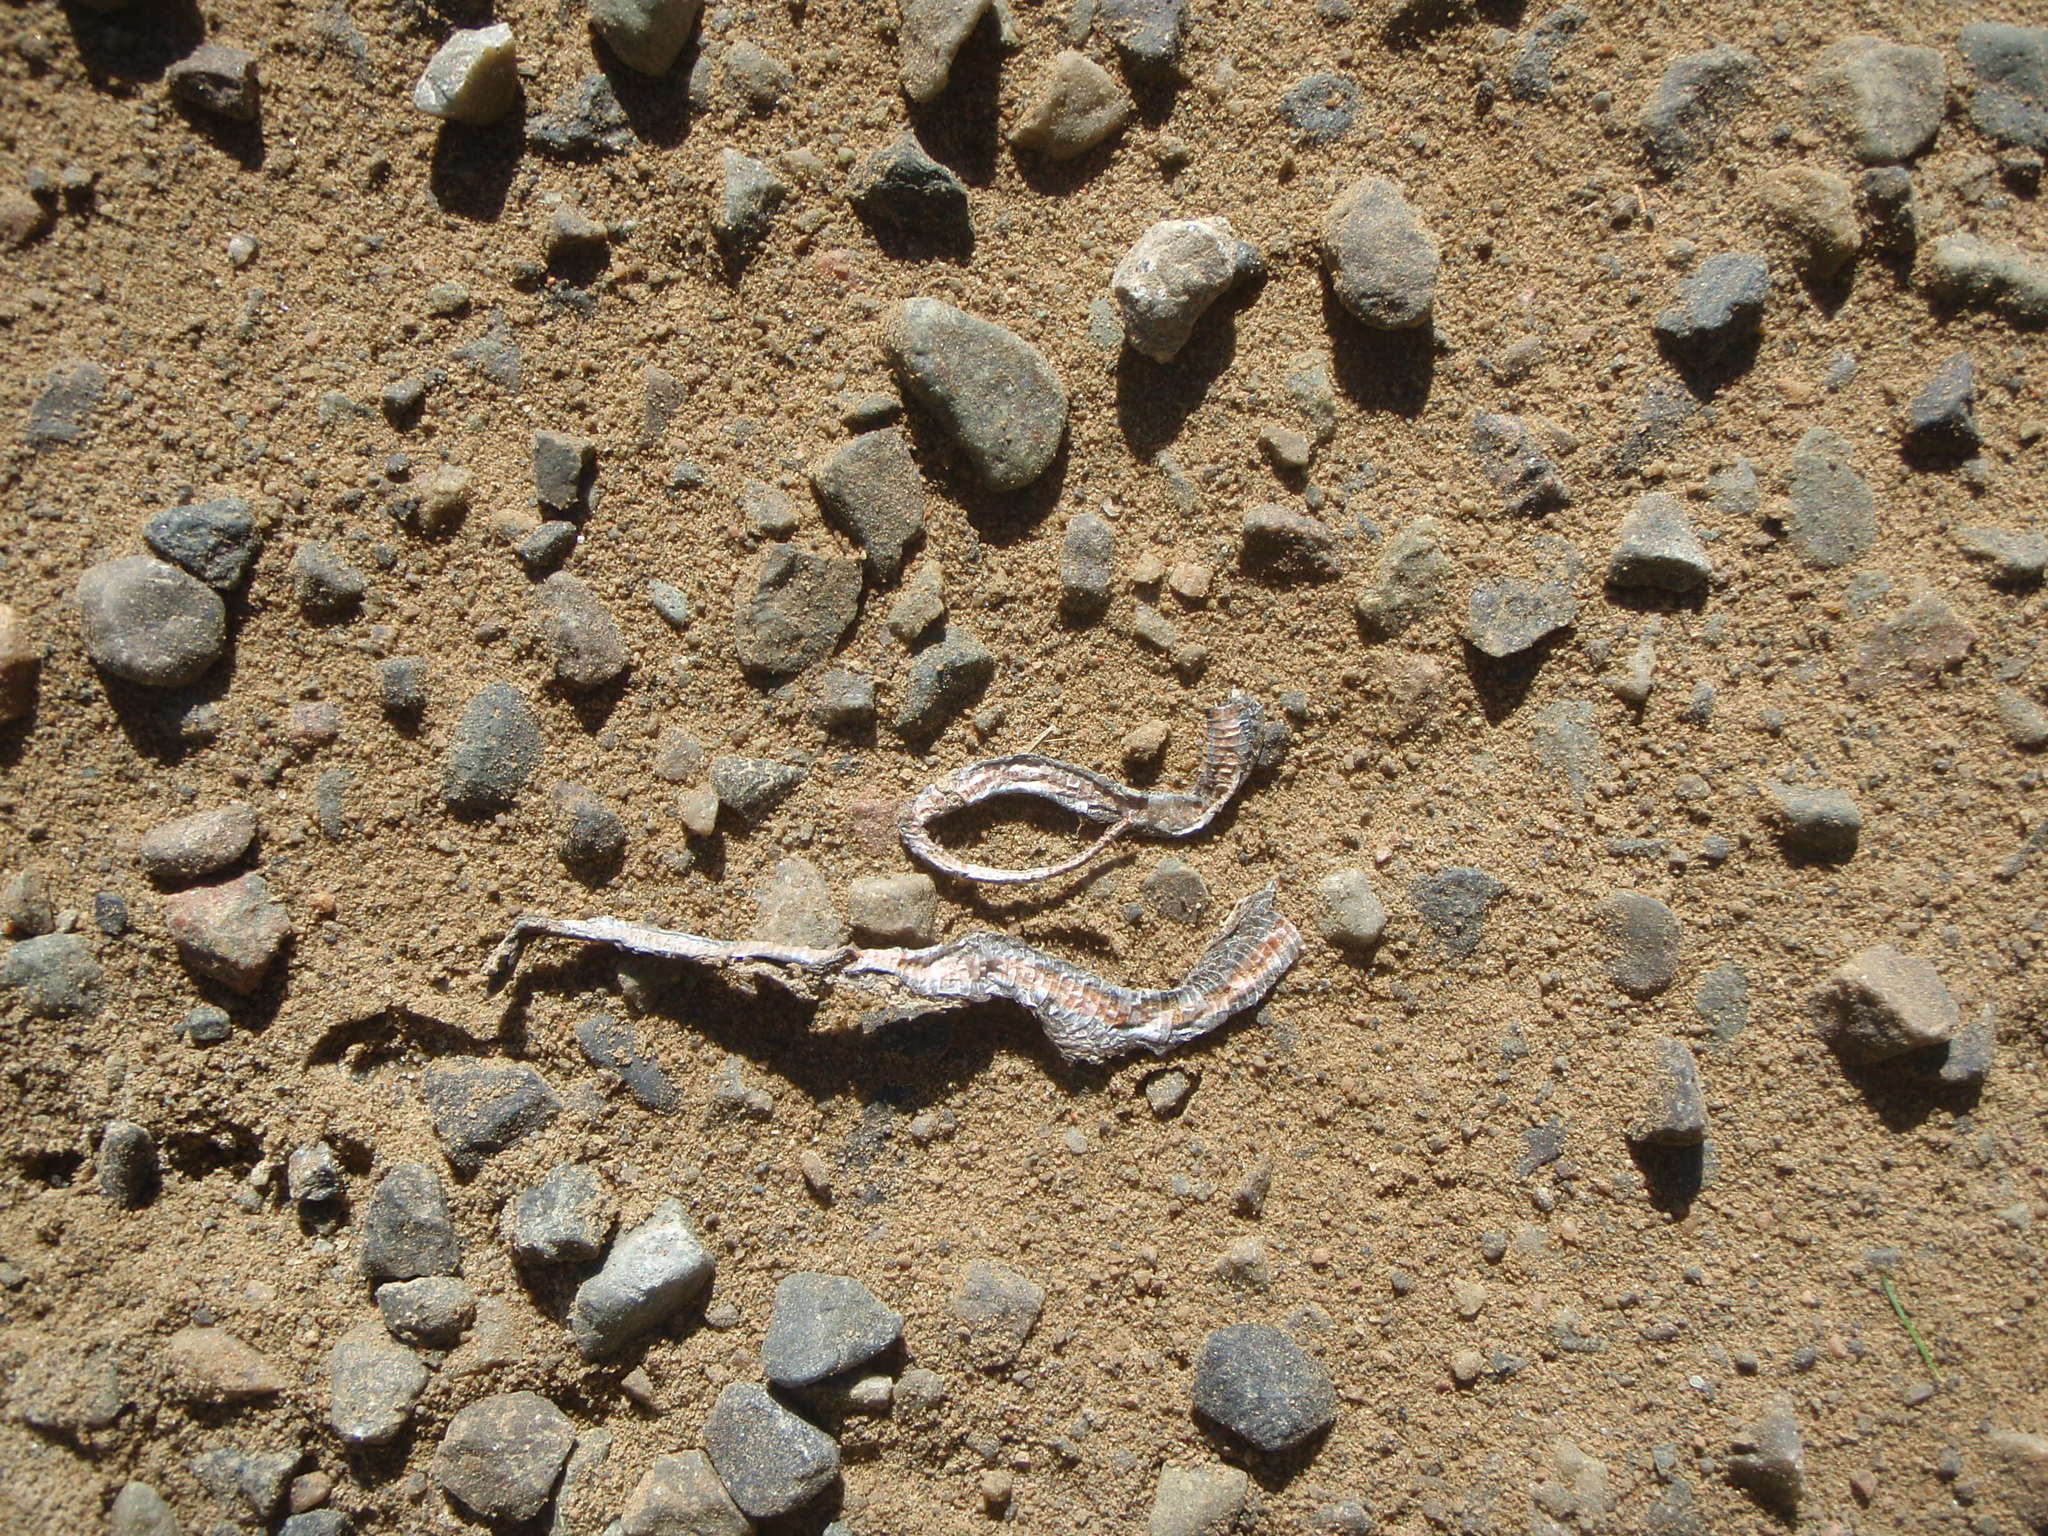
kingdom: Animalia
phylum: Chordata
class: Squamata
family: Colubridae
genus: Storeria
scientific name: Storeria occipitomaculata
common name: Redbelly snake
